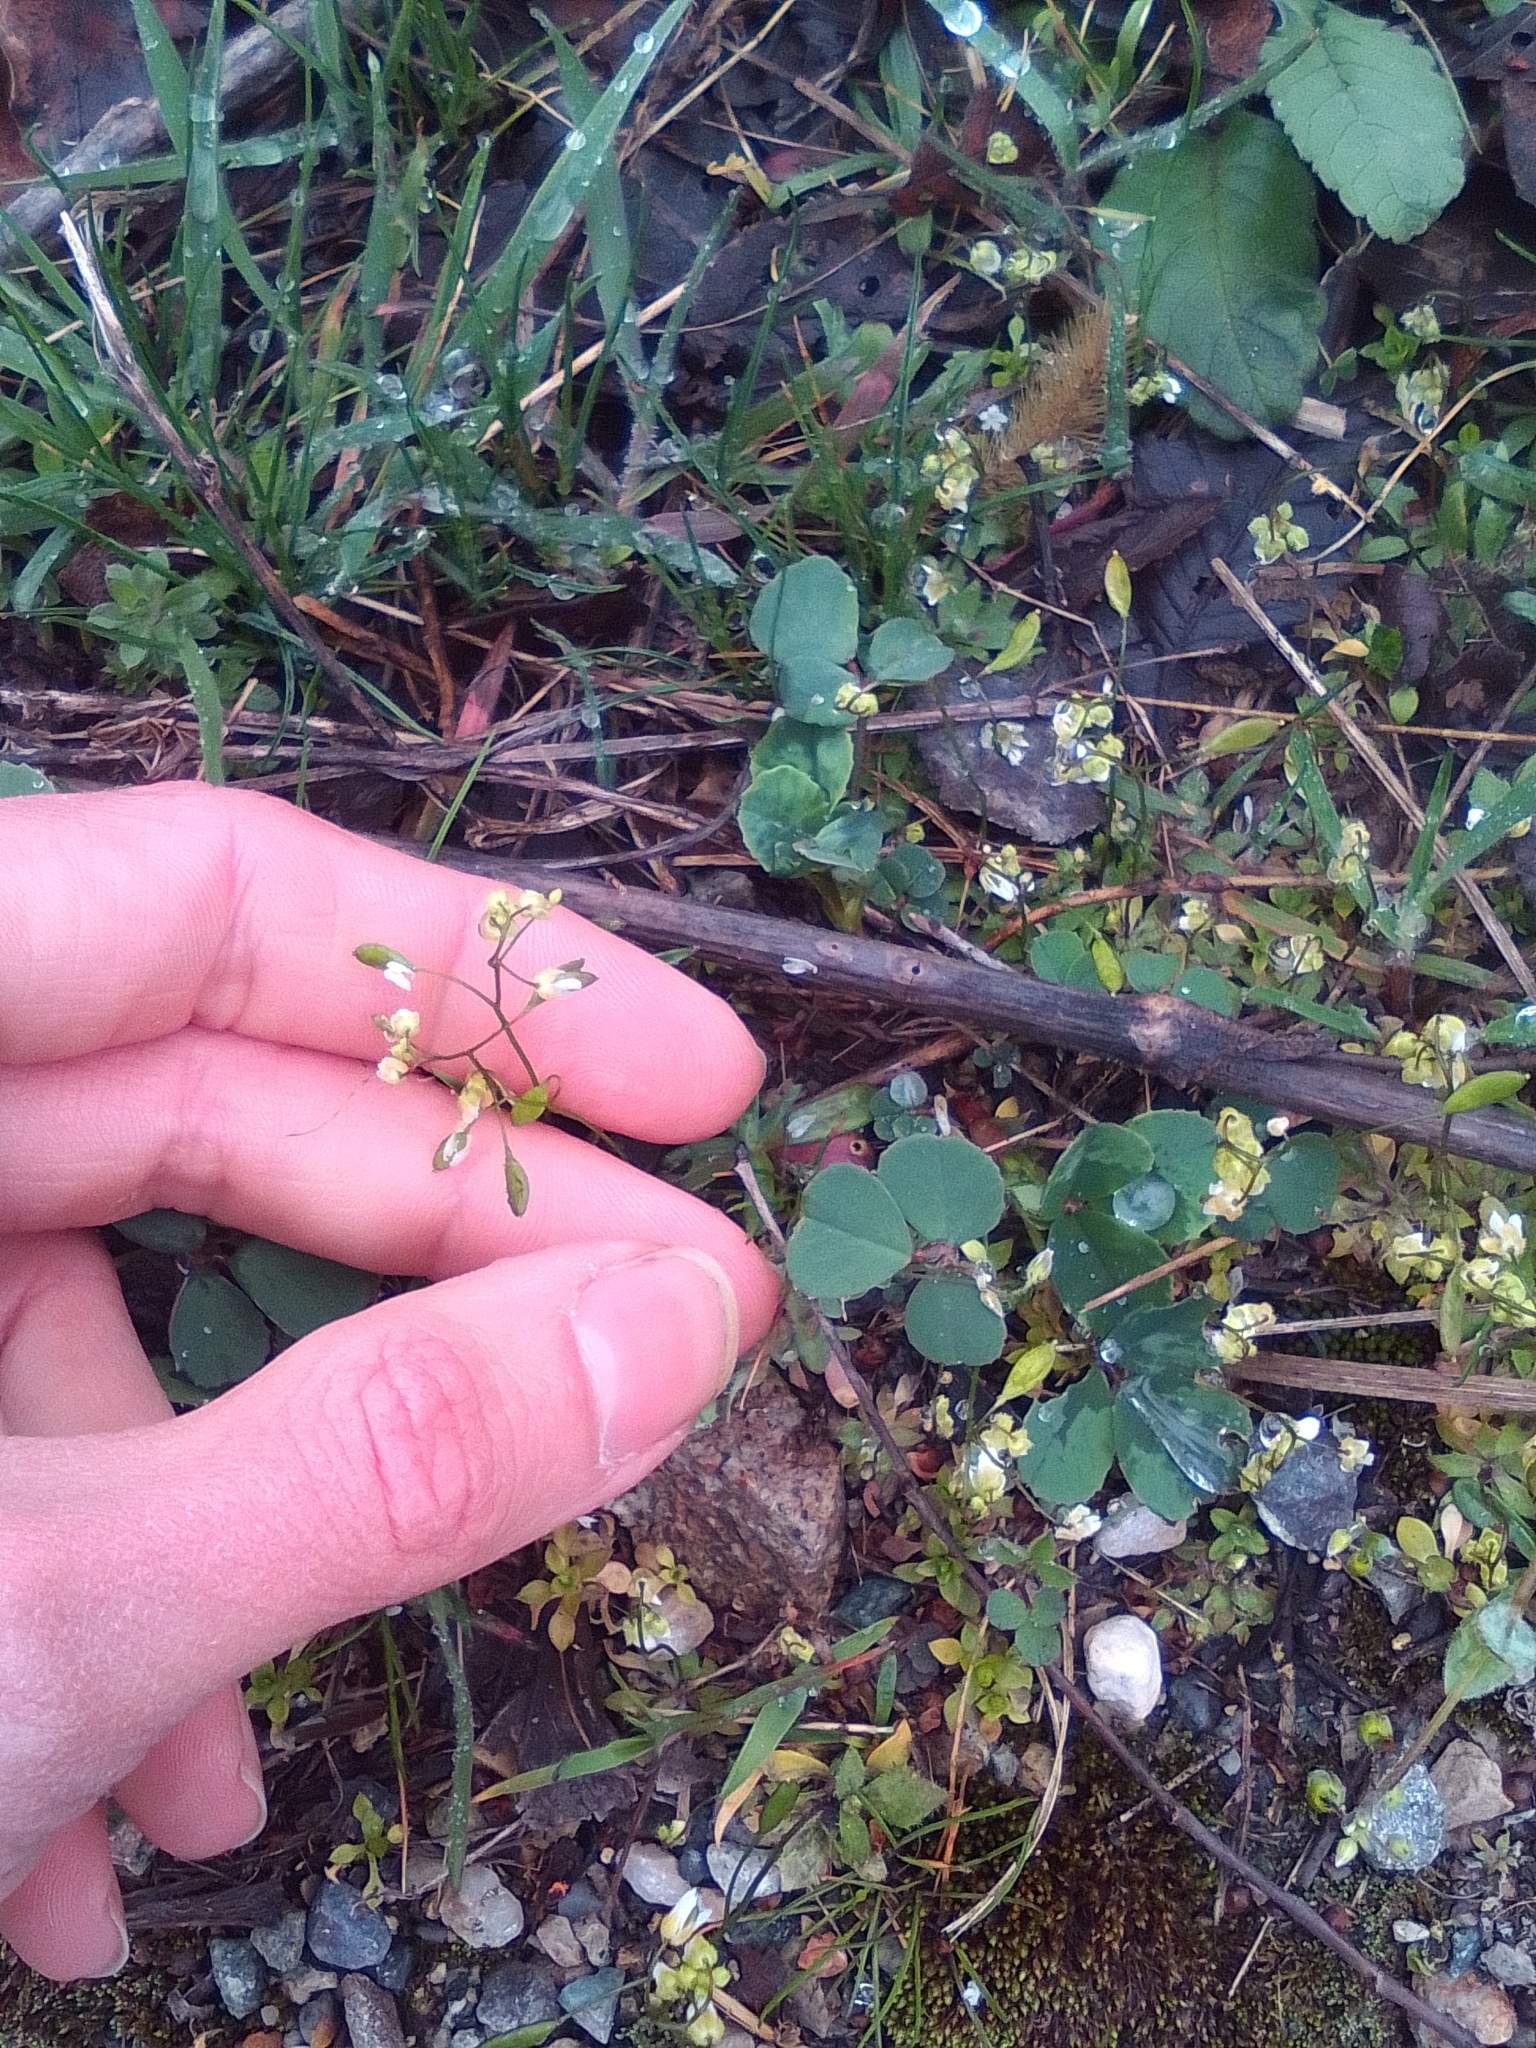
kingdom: Plantae
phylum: Tracheophyta
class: Magnoliopsida
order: Brassicales
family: Brassicaceae
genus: Draba
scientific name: Draba verna
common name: Spring draba
